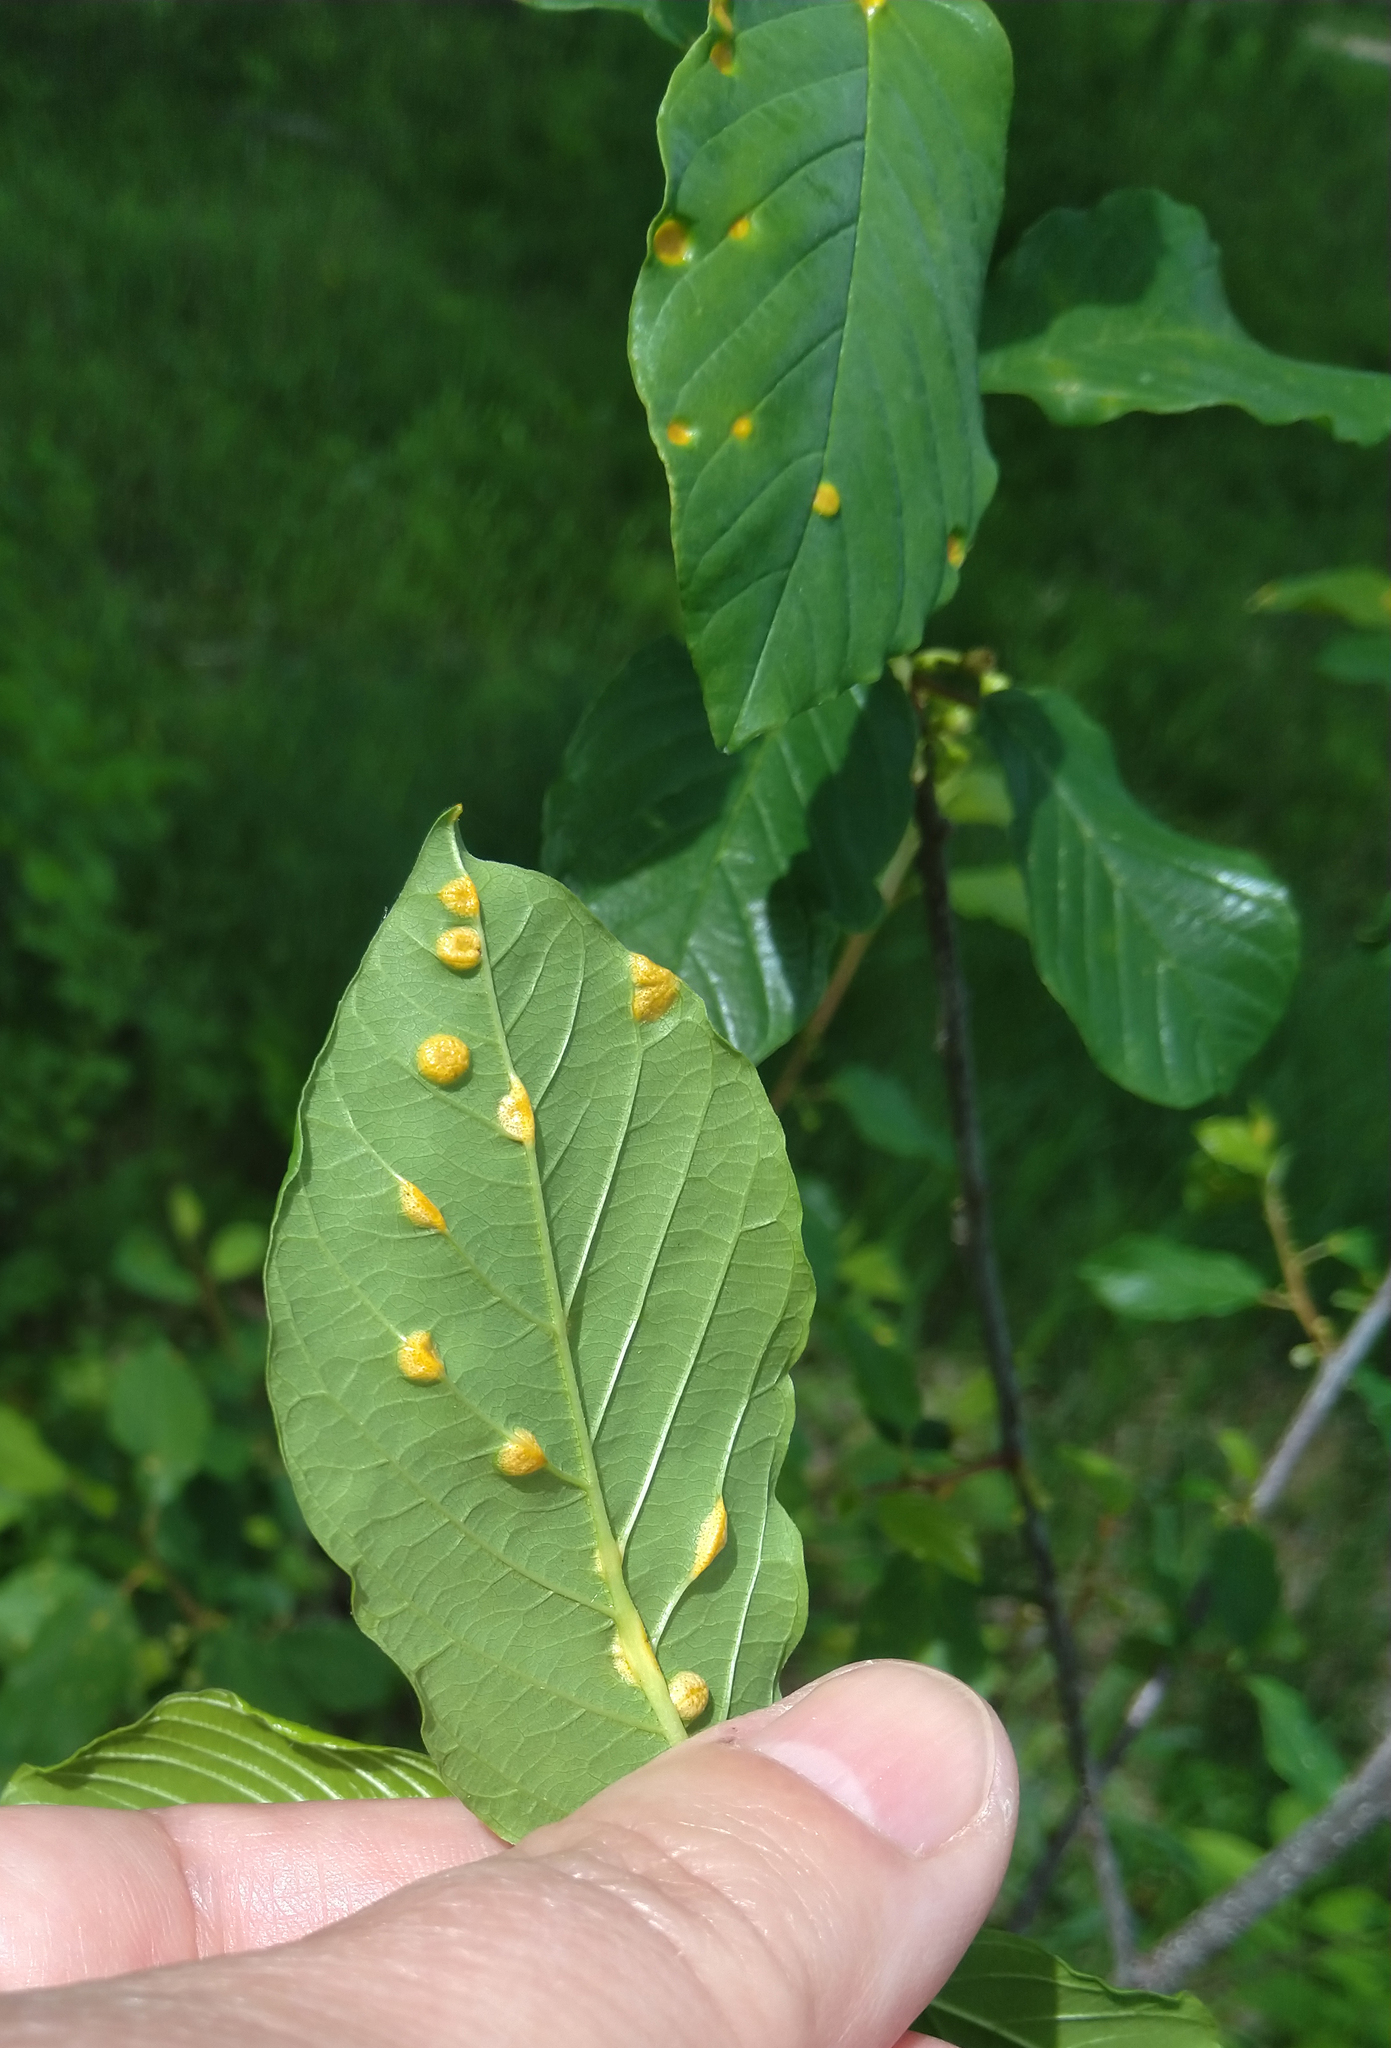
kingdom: Fungi
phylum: Basidiomycota
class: Pucciniomycetes
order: Pucciniales
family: Pucciniaceae
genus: Puccinia
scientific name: Puccinia coronata
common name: Crown rust
